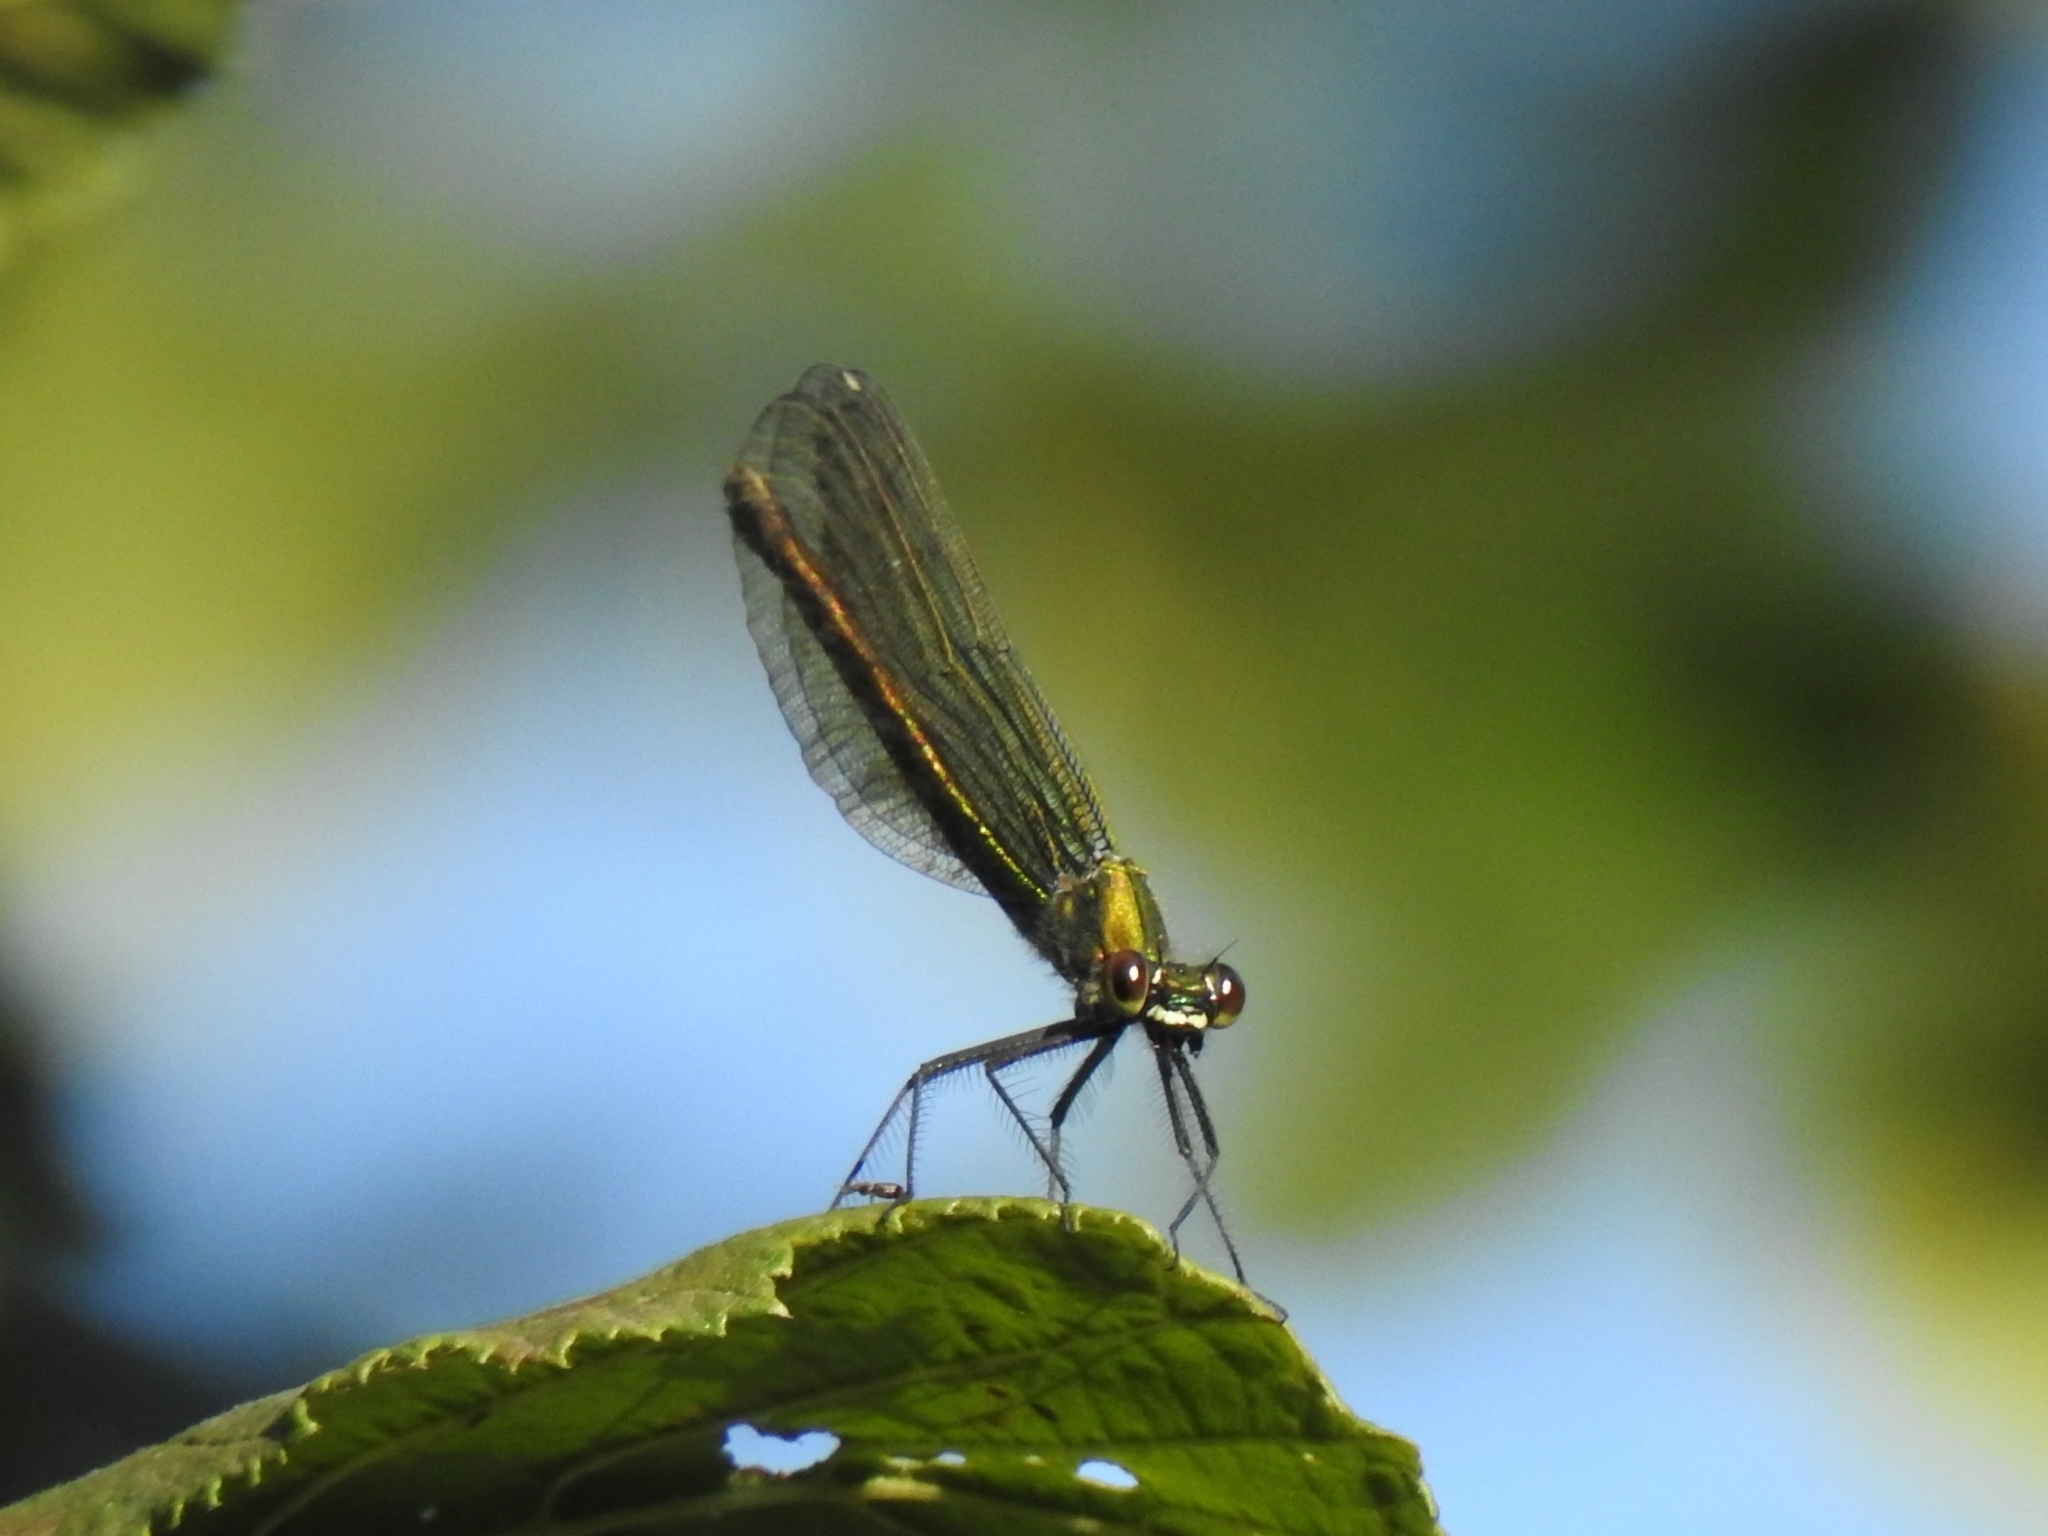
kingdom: Animalia
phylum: Arthropoda
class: Insecta
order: Odonata
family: Calopterygidae
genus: Calopteryx
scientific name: Calopteryx splendens
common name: Banded demoiselle
